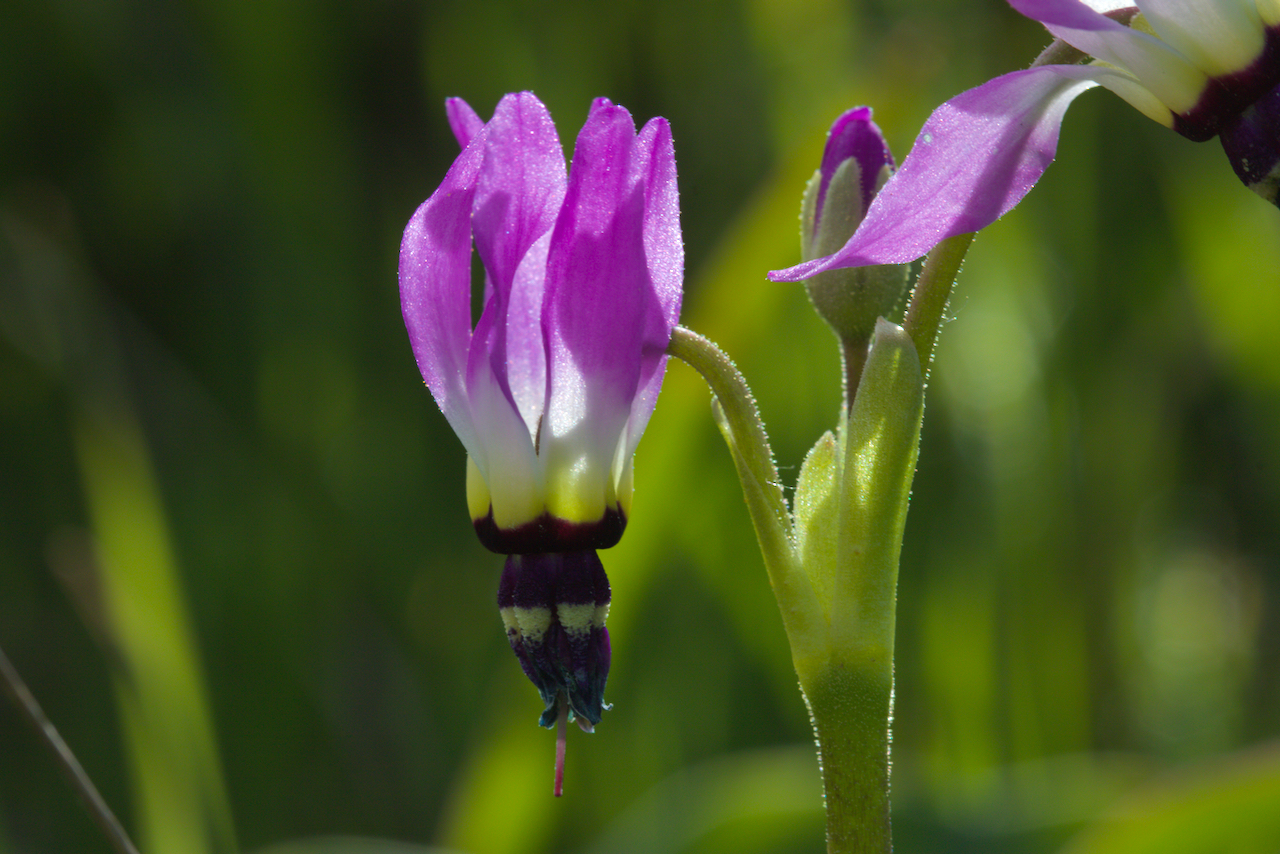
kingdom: Plantae
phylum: Tracheophyta
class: Magnoliopsida
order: Ericales
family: Primulaceae
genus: Dodecatheon
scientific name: Dodecatheon clevelandii
